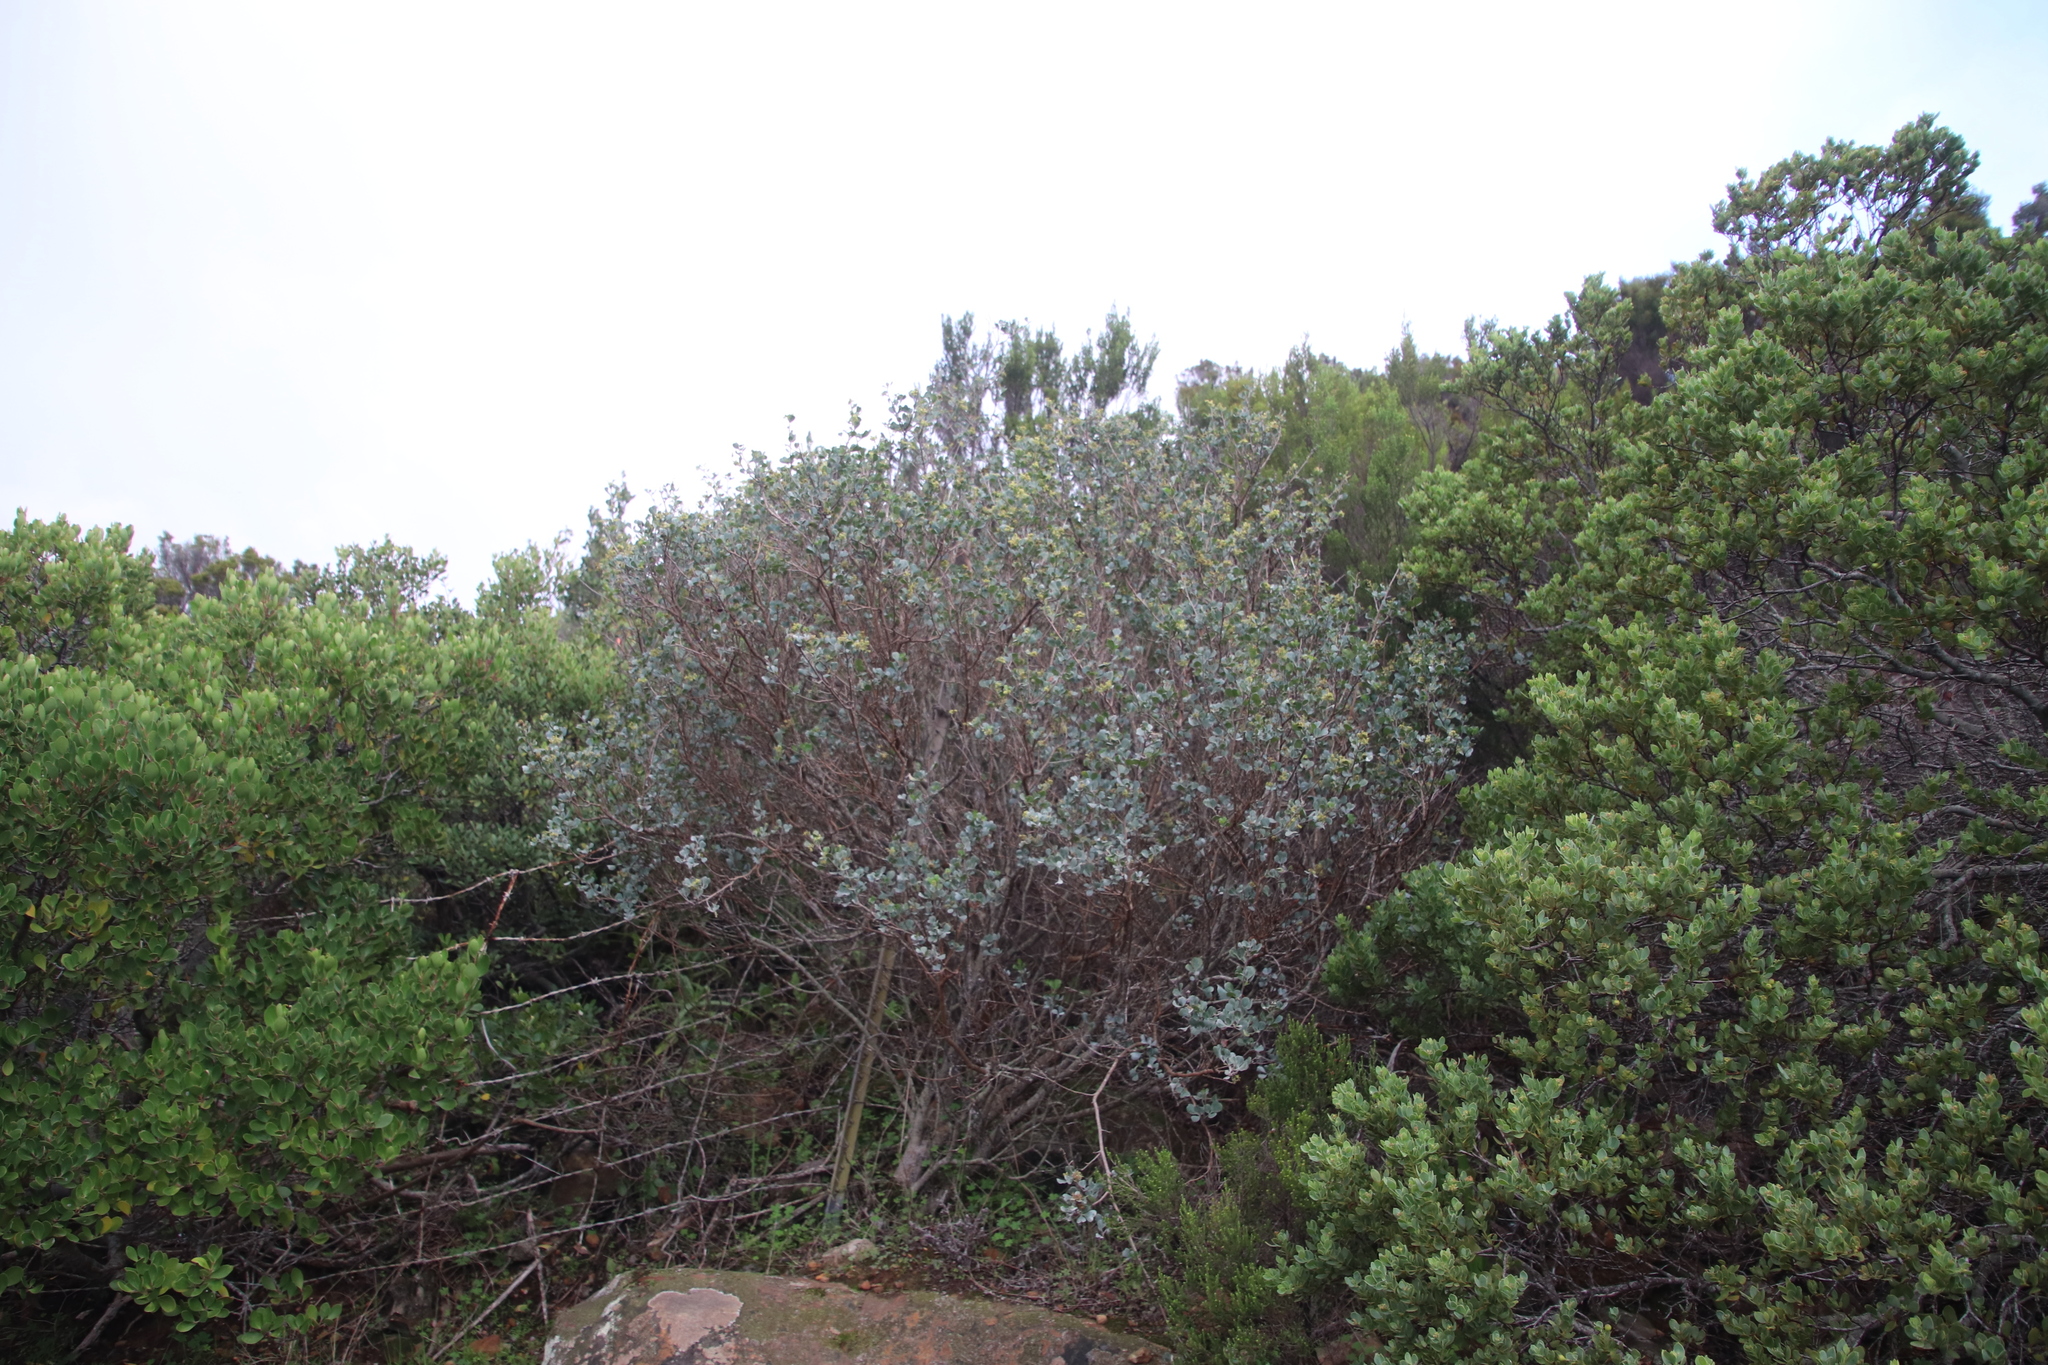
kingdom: Plantae
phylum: Tracheophyta
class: Magnoliopsida
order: Sapindales
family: Anacardiaceae
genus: Searsia
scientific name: Searsia glauca
